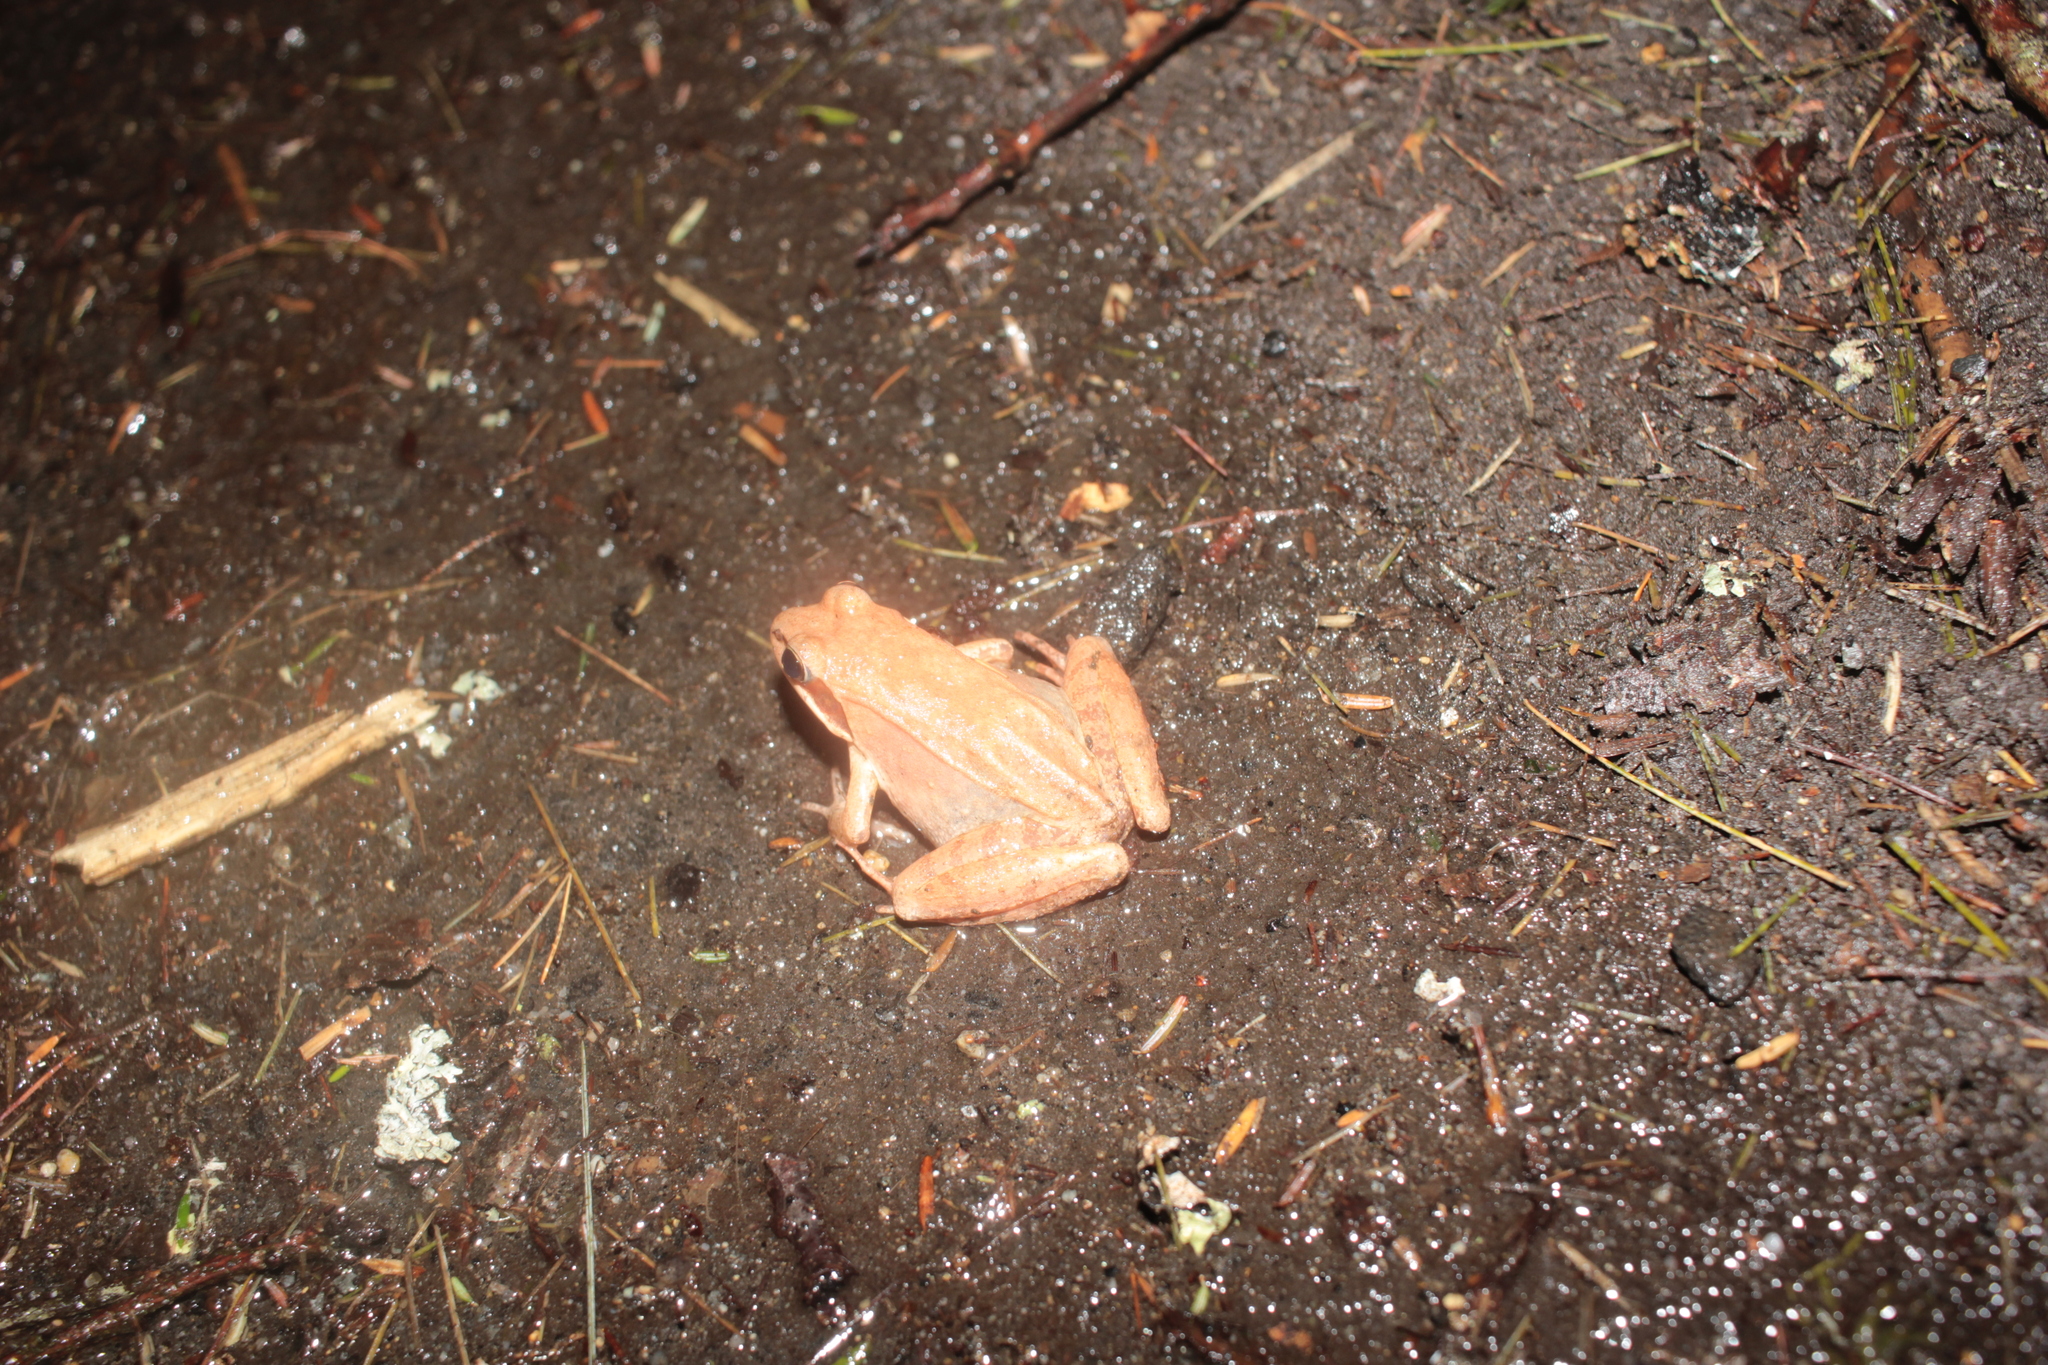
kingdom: Animalia
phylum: Chordata
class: Amphibia
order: Anura
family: Ranidae
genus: Lithobates
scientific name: Lithobates sylvaticus
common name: Wood frog
